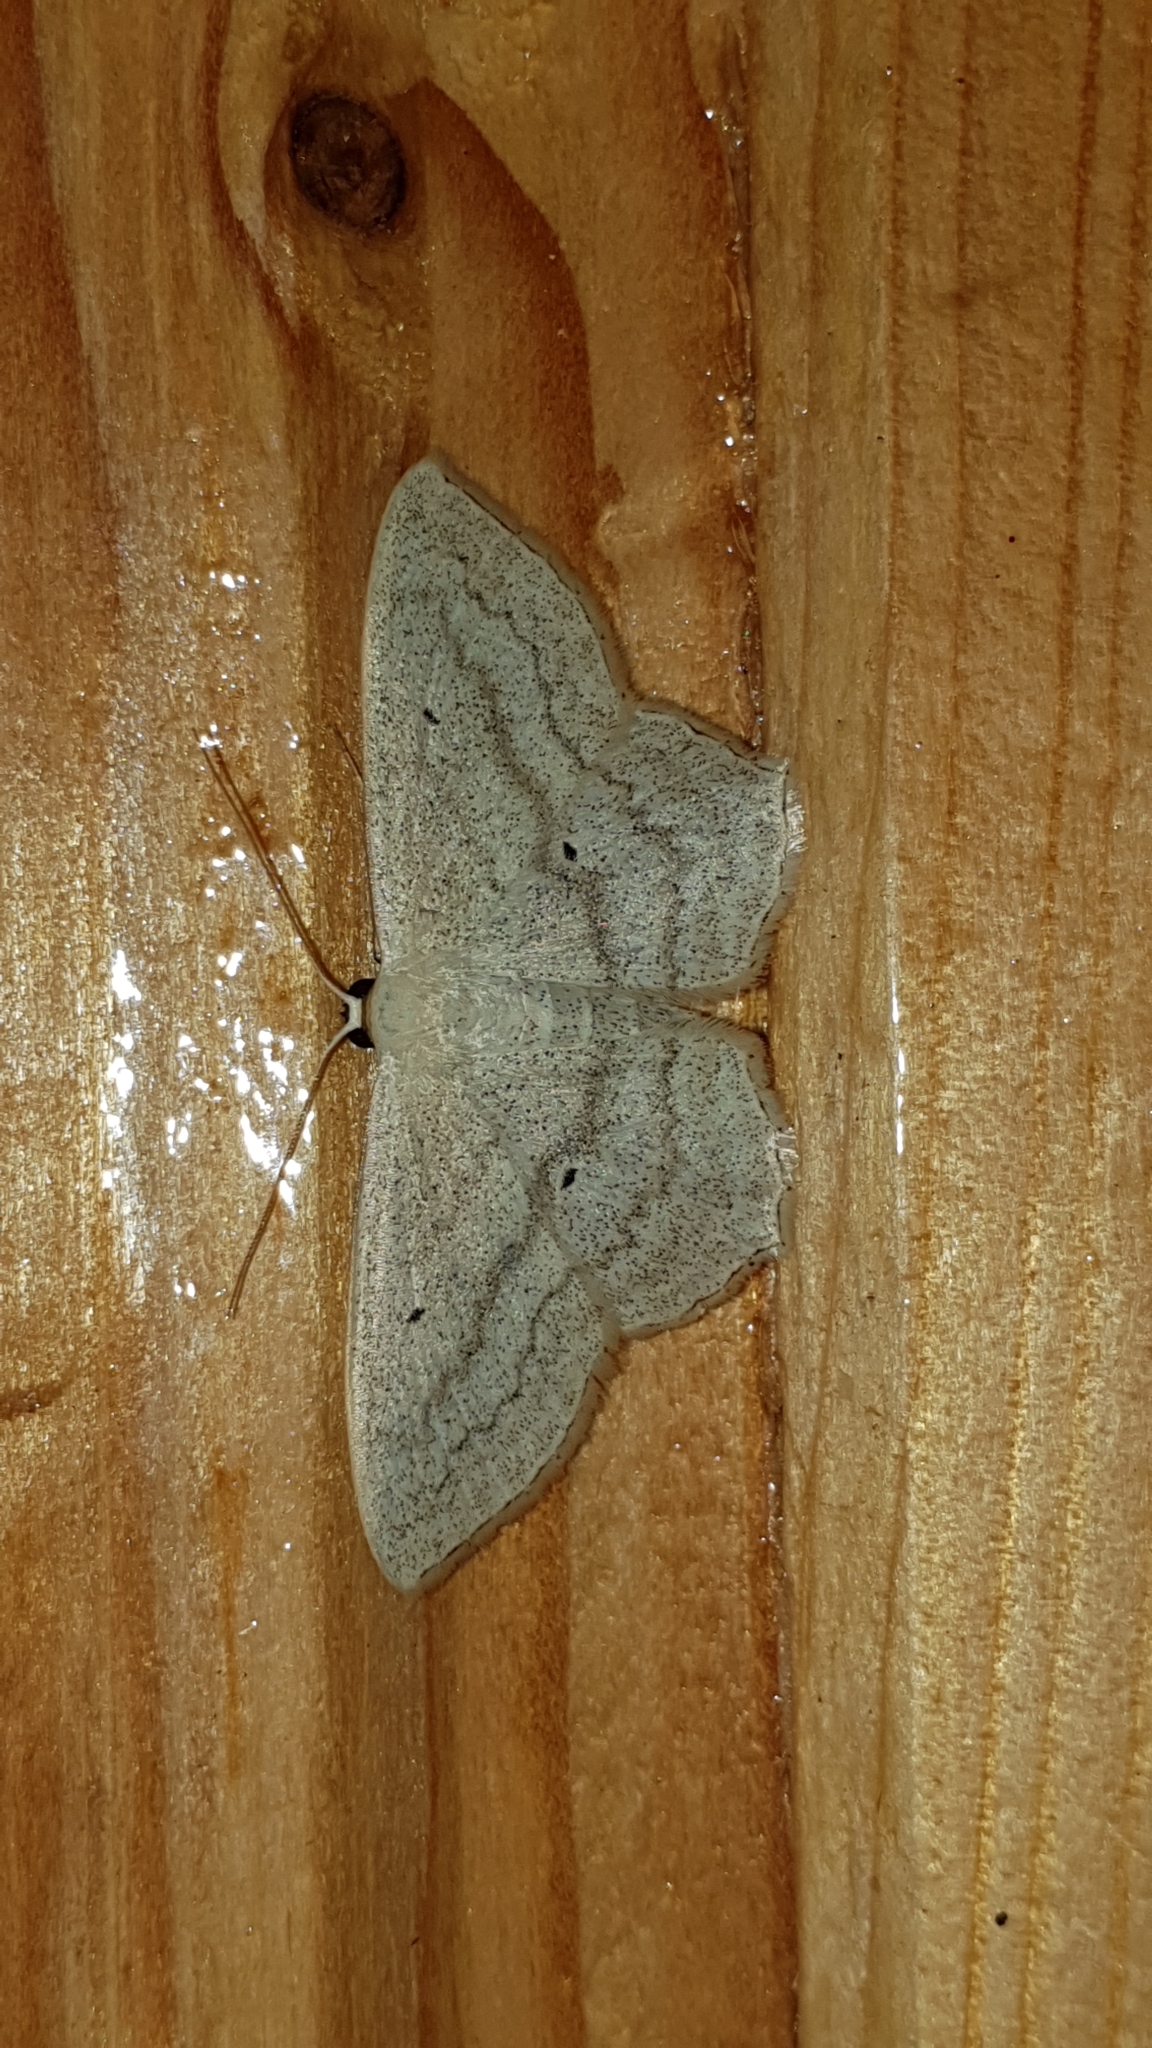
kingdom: Animalia
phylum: Arthropoda
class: Insecta
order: Lepidoptera
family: Geometridae
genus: Scopula
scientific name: Scopula nigropunctata
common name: Sub-angled wave
